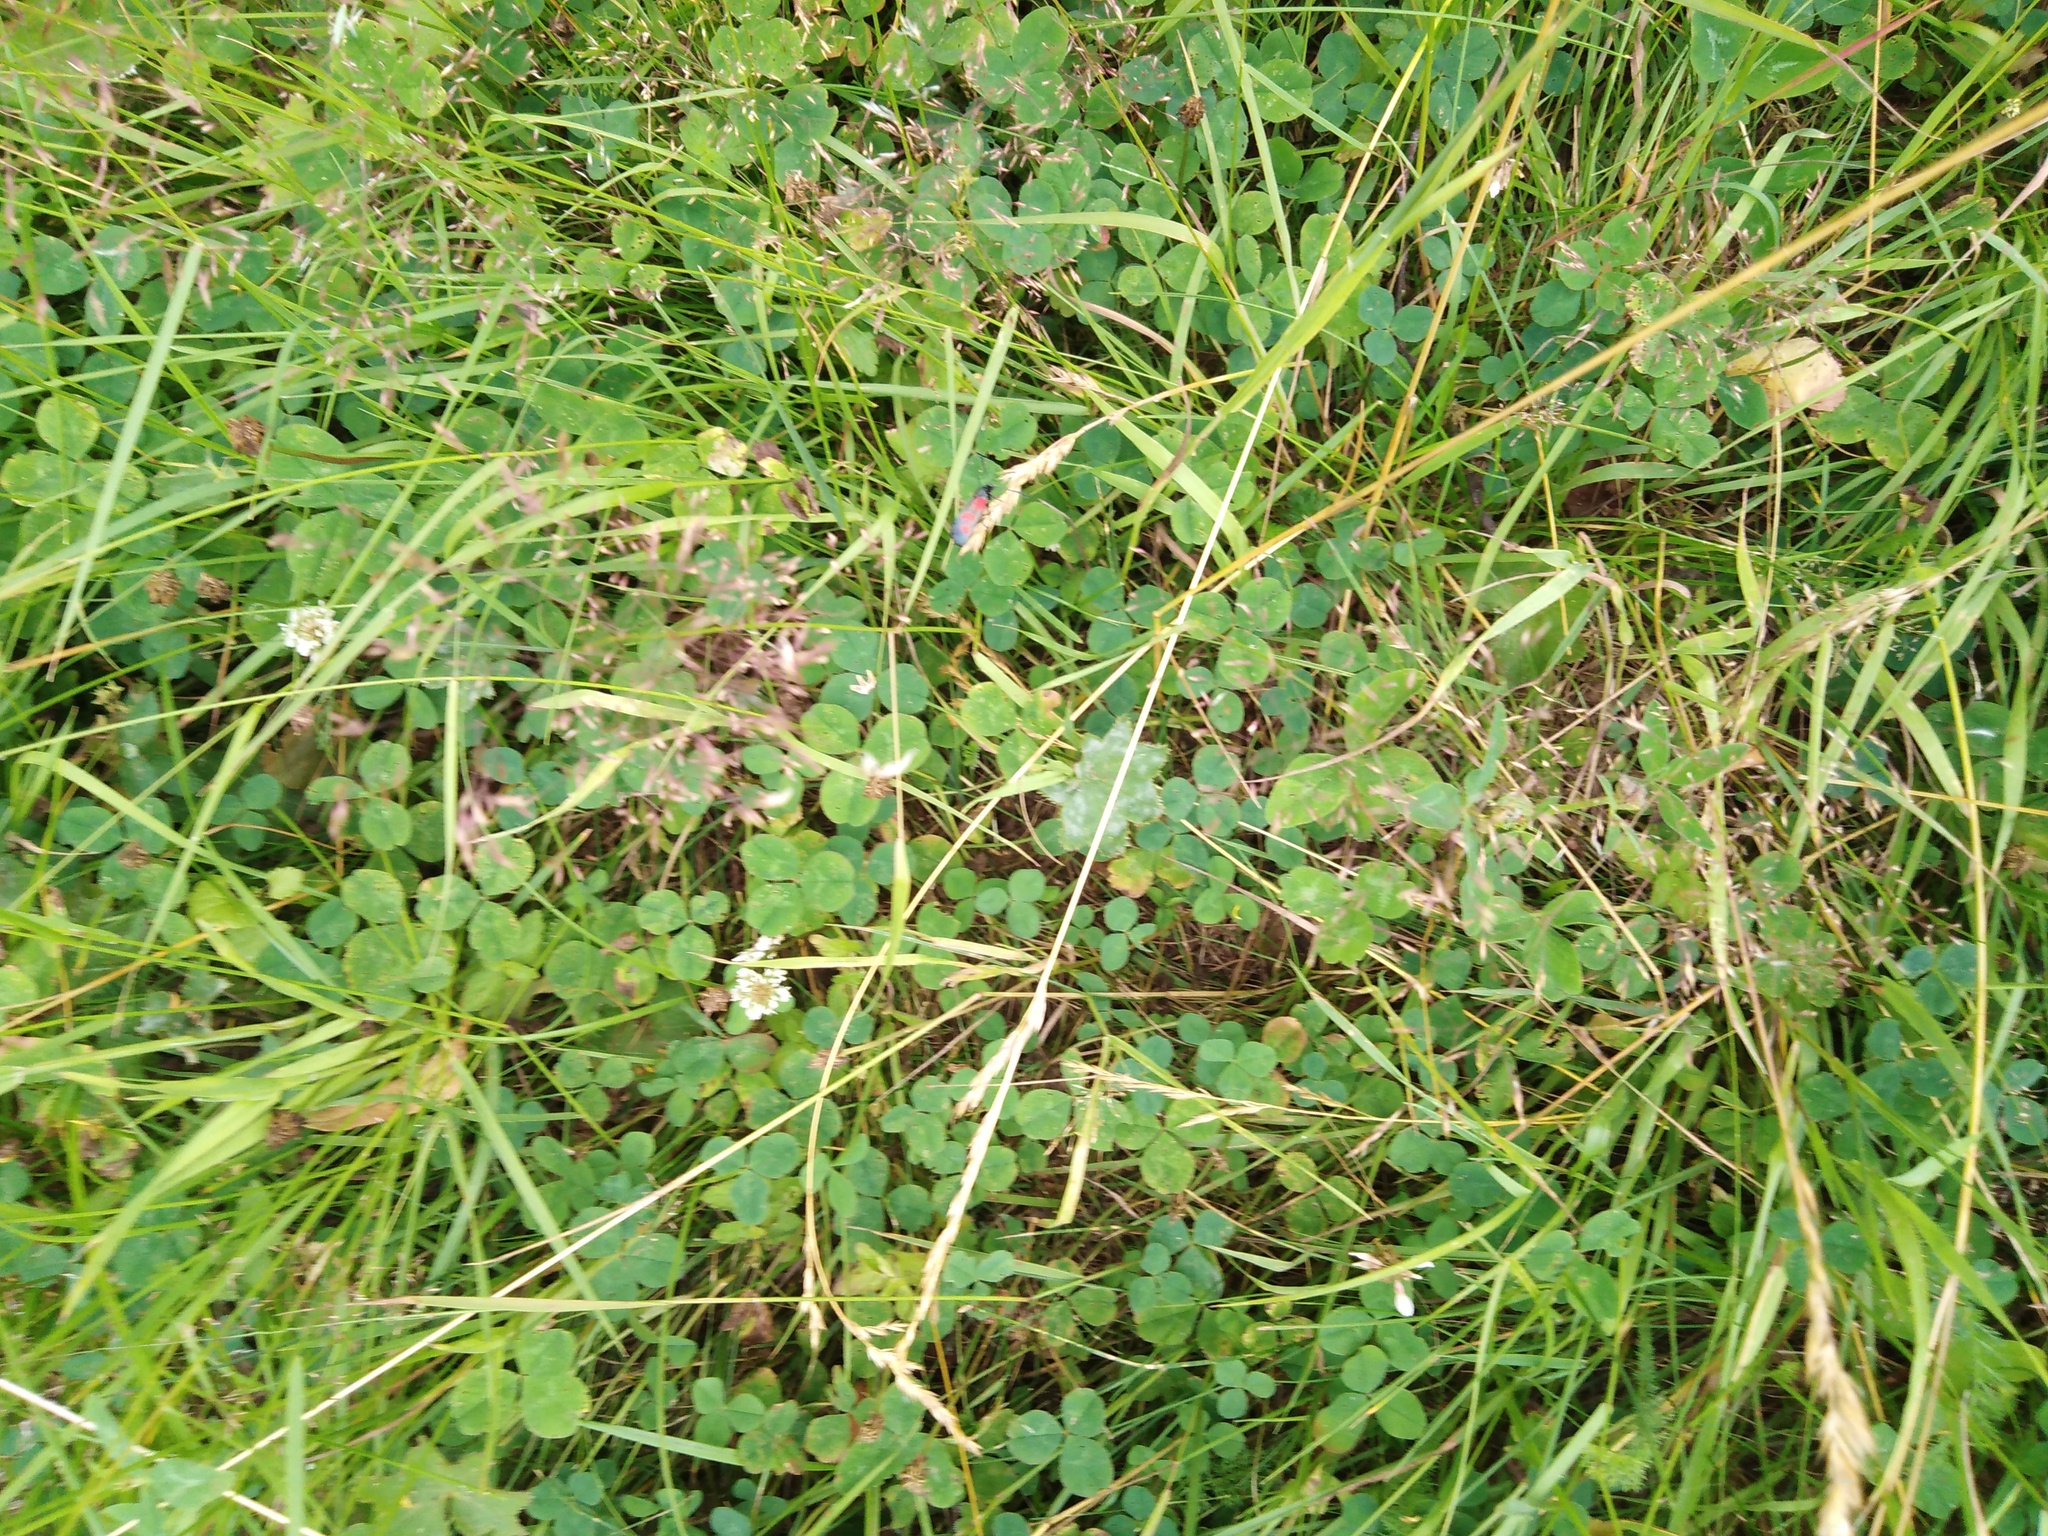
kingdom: Plantae
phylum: Tracheophyta
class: Magnoliopsida
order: Fabales
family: Fabaceae
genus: Trifolium
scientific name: Trifolium repens
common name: White clover
